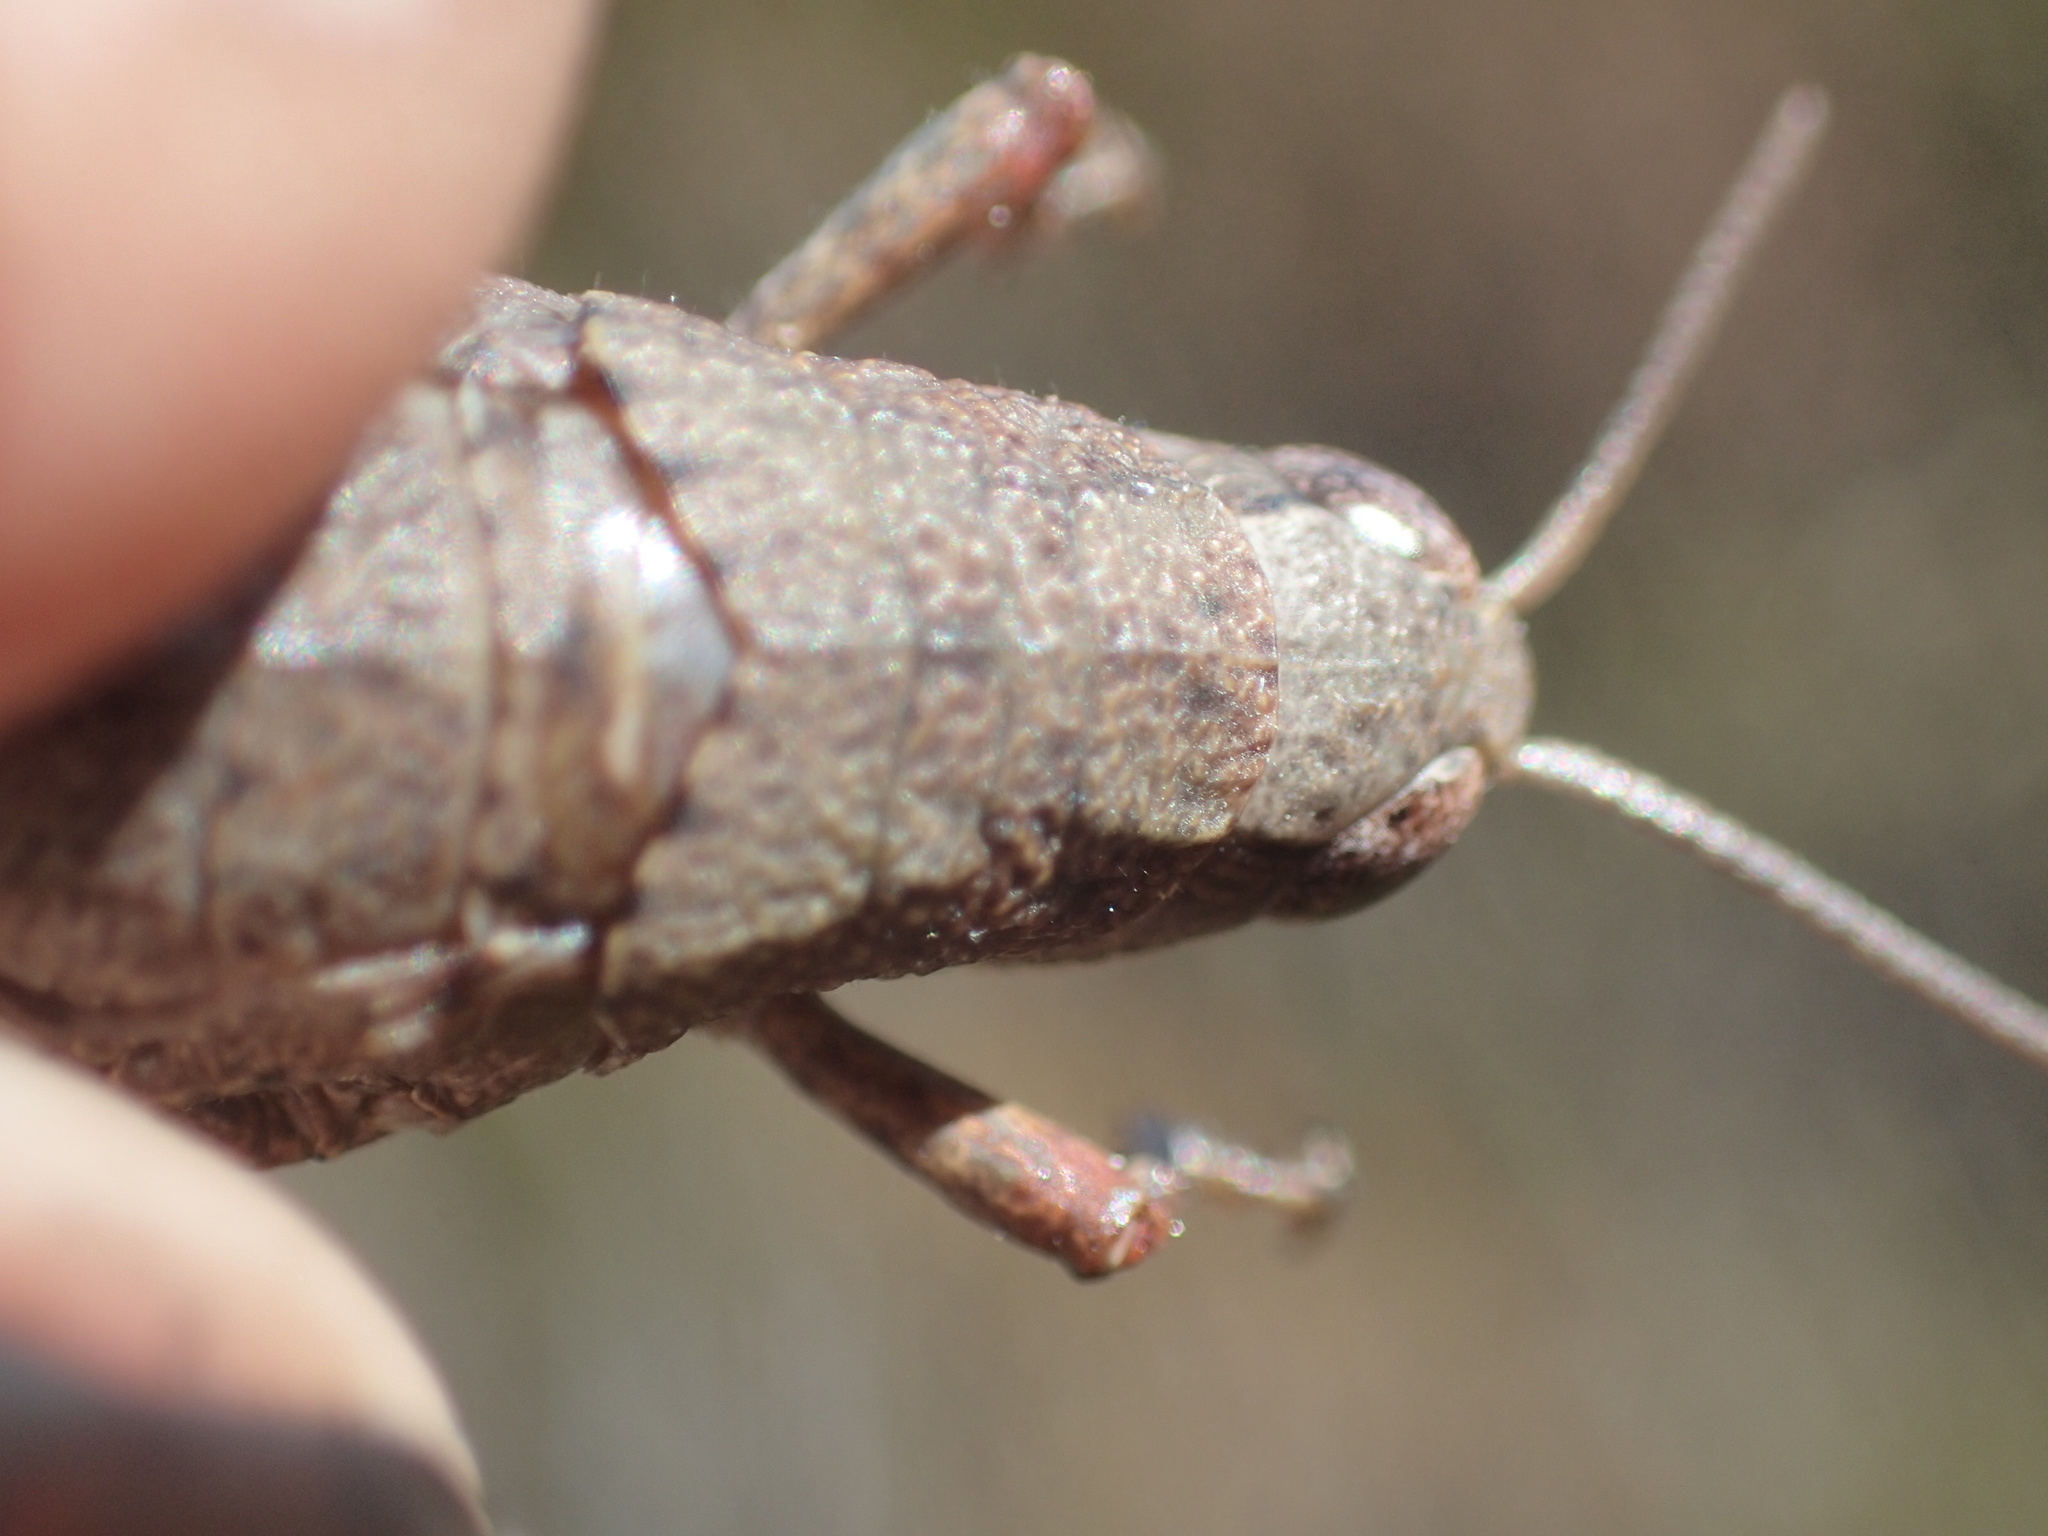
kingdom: Animalia
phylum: Arthropoda
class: Insecta
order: Orthoptera
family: Acrididae
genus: Tasmaniacris
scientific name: Tasmaniacris tasmaniensis
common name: Tasmanian grasshopper
